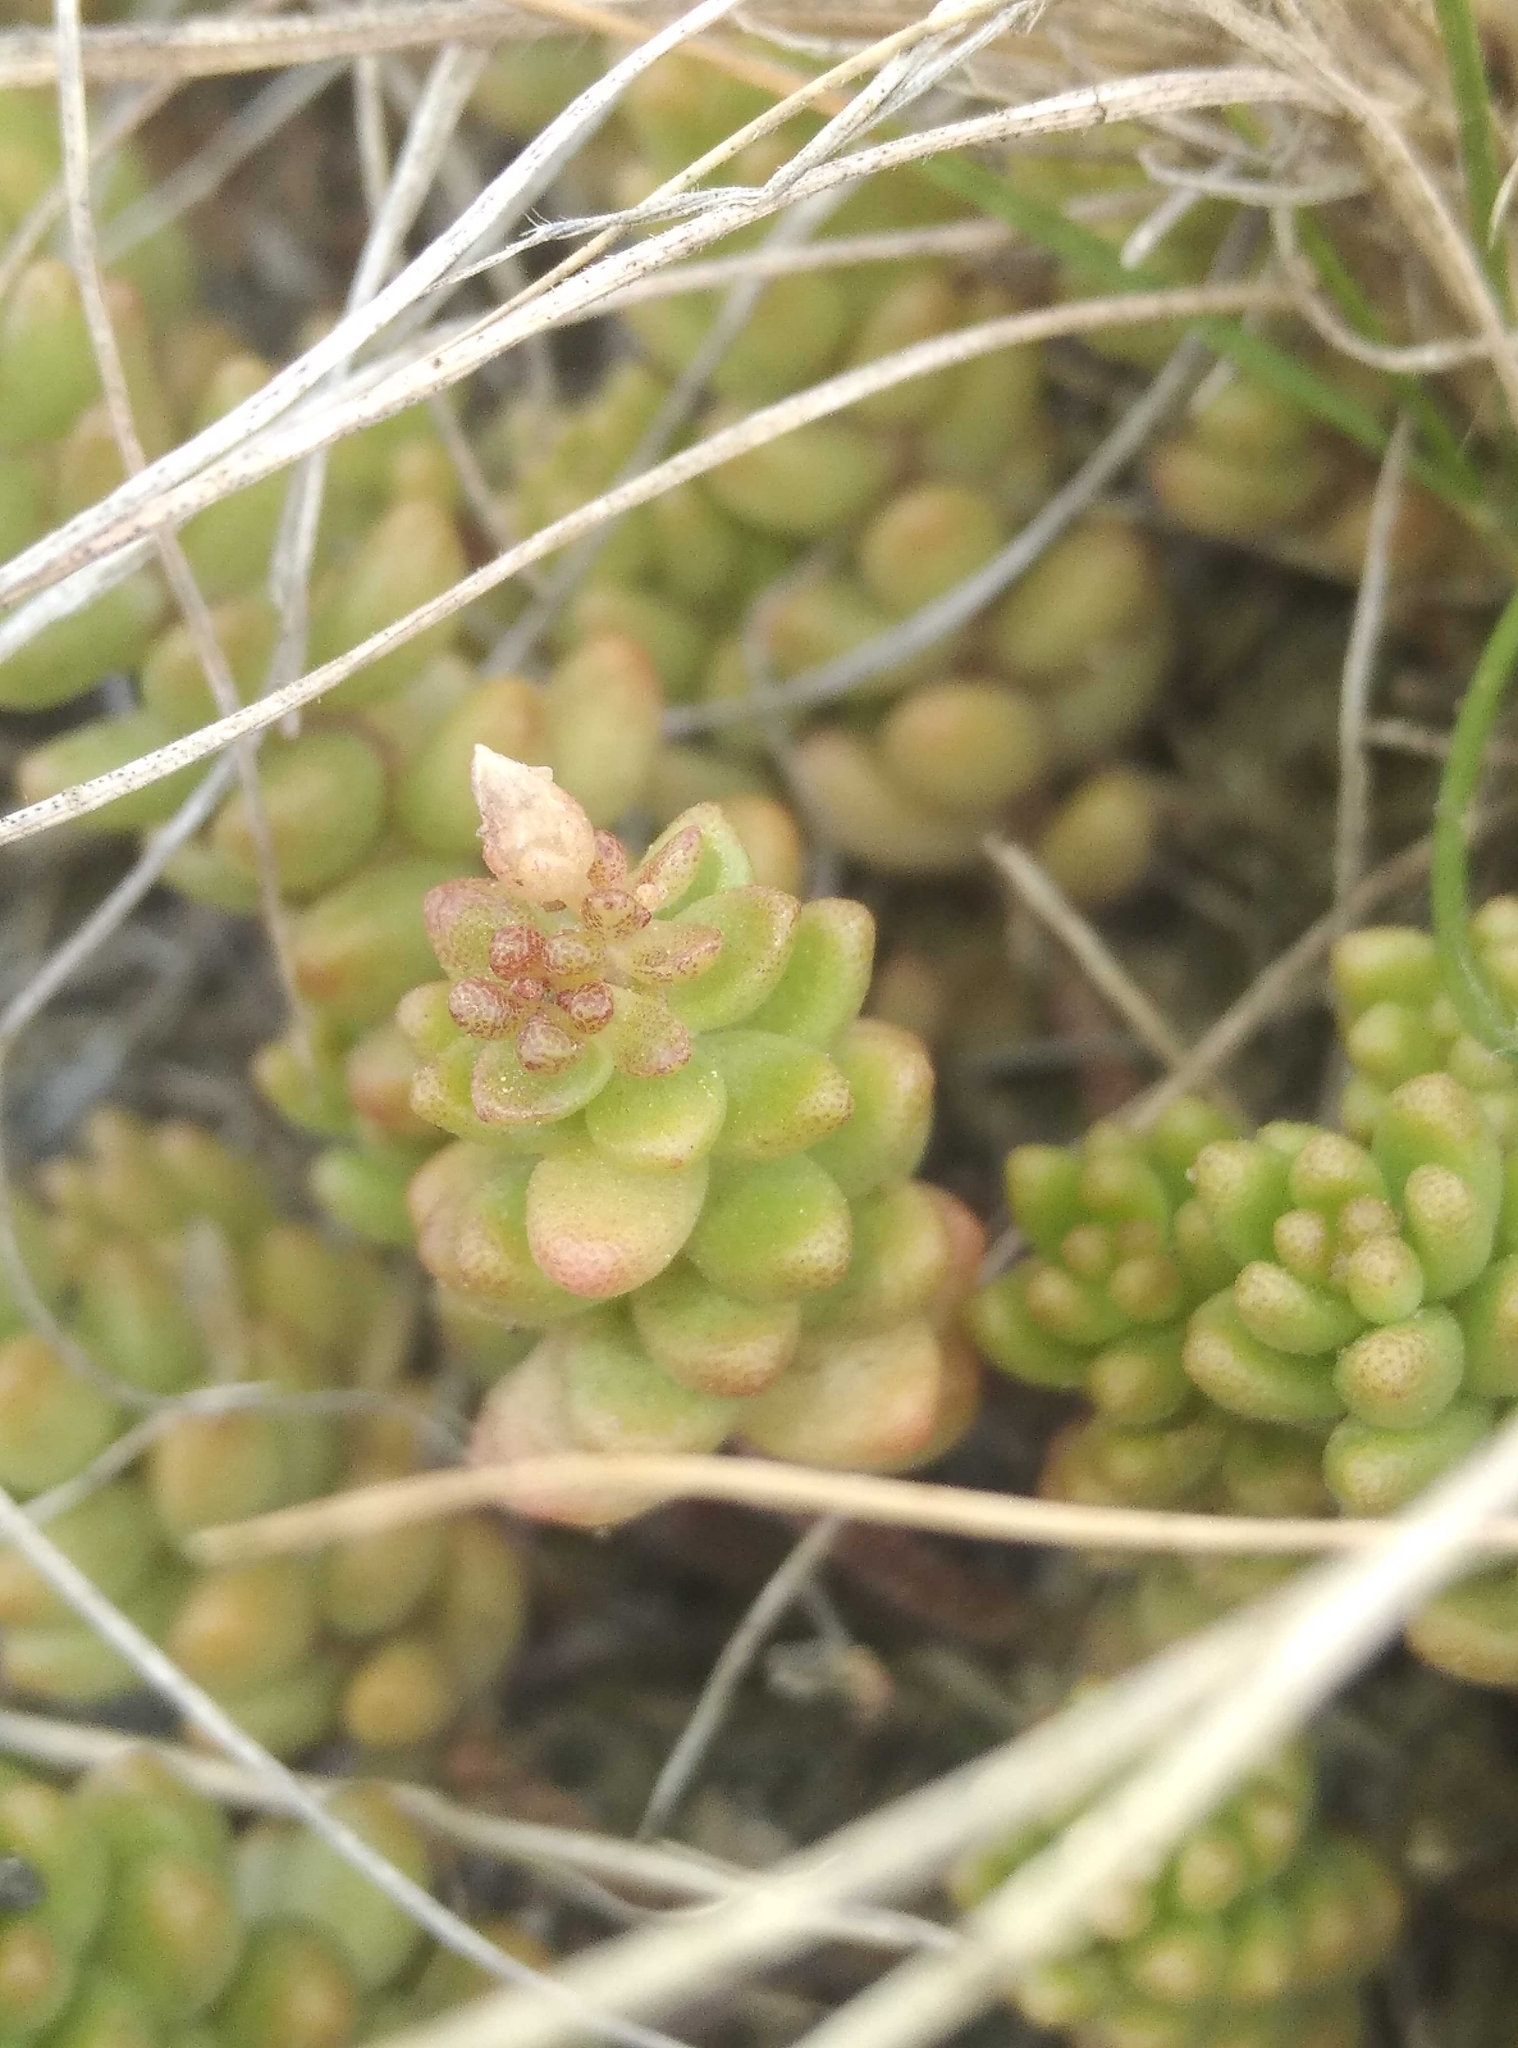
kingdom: Plantae
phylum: Tracheophyta
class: Magnoliopsida
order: Saxifragales
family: Crassulaceae
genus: Sedum
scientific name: Sedum album
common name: White stonecrop
